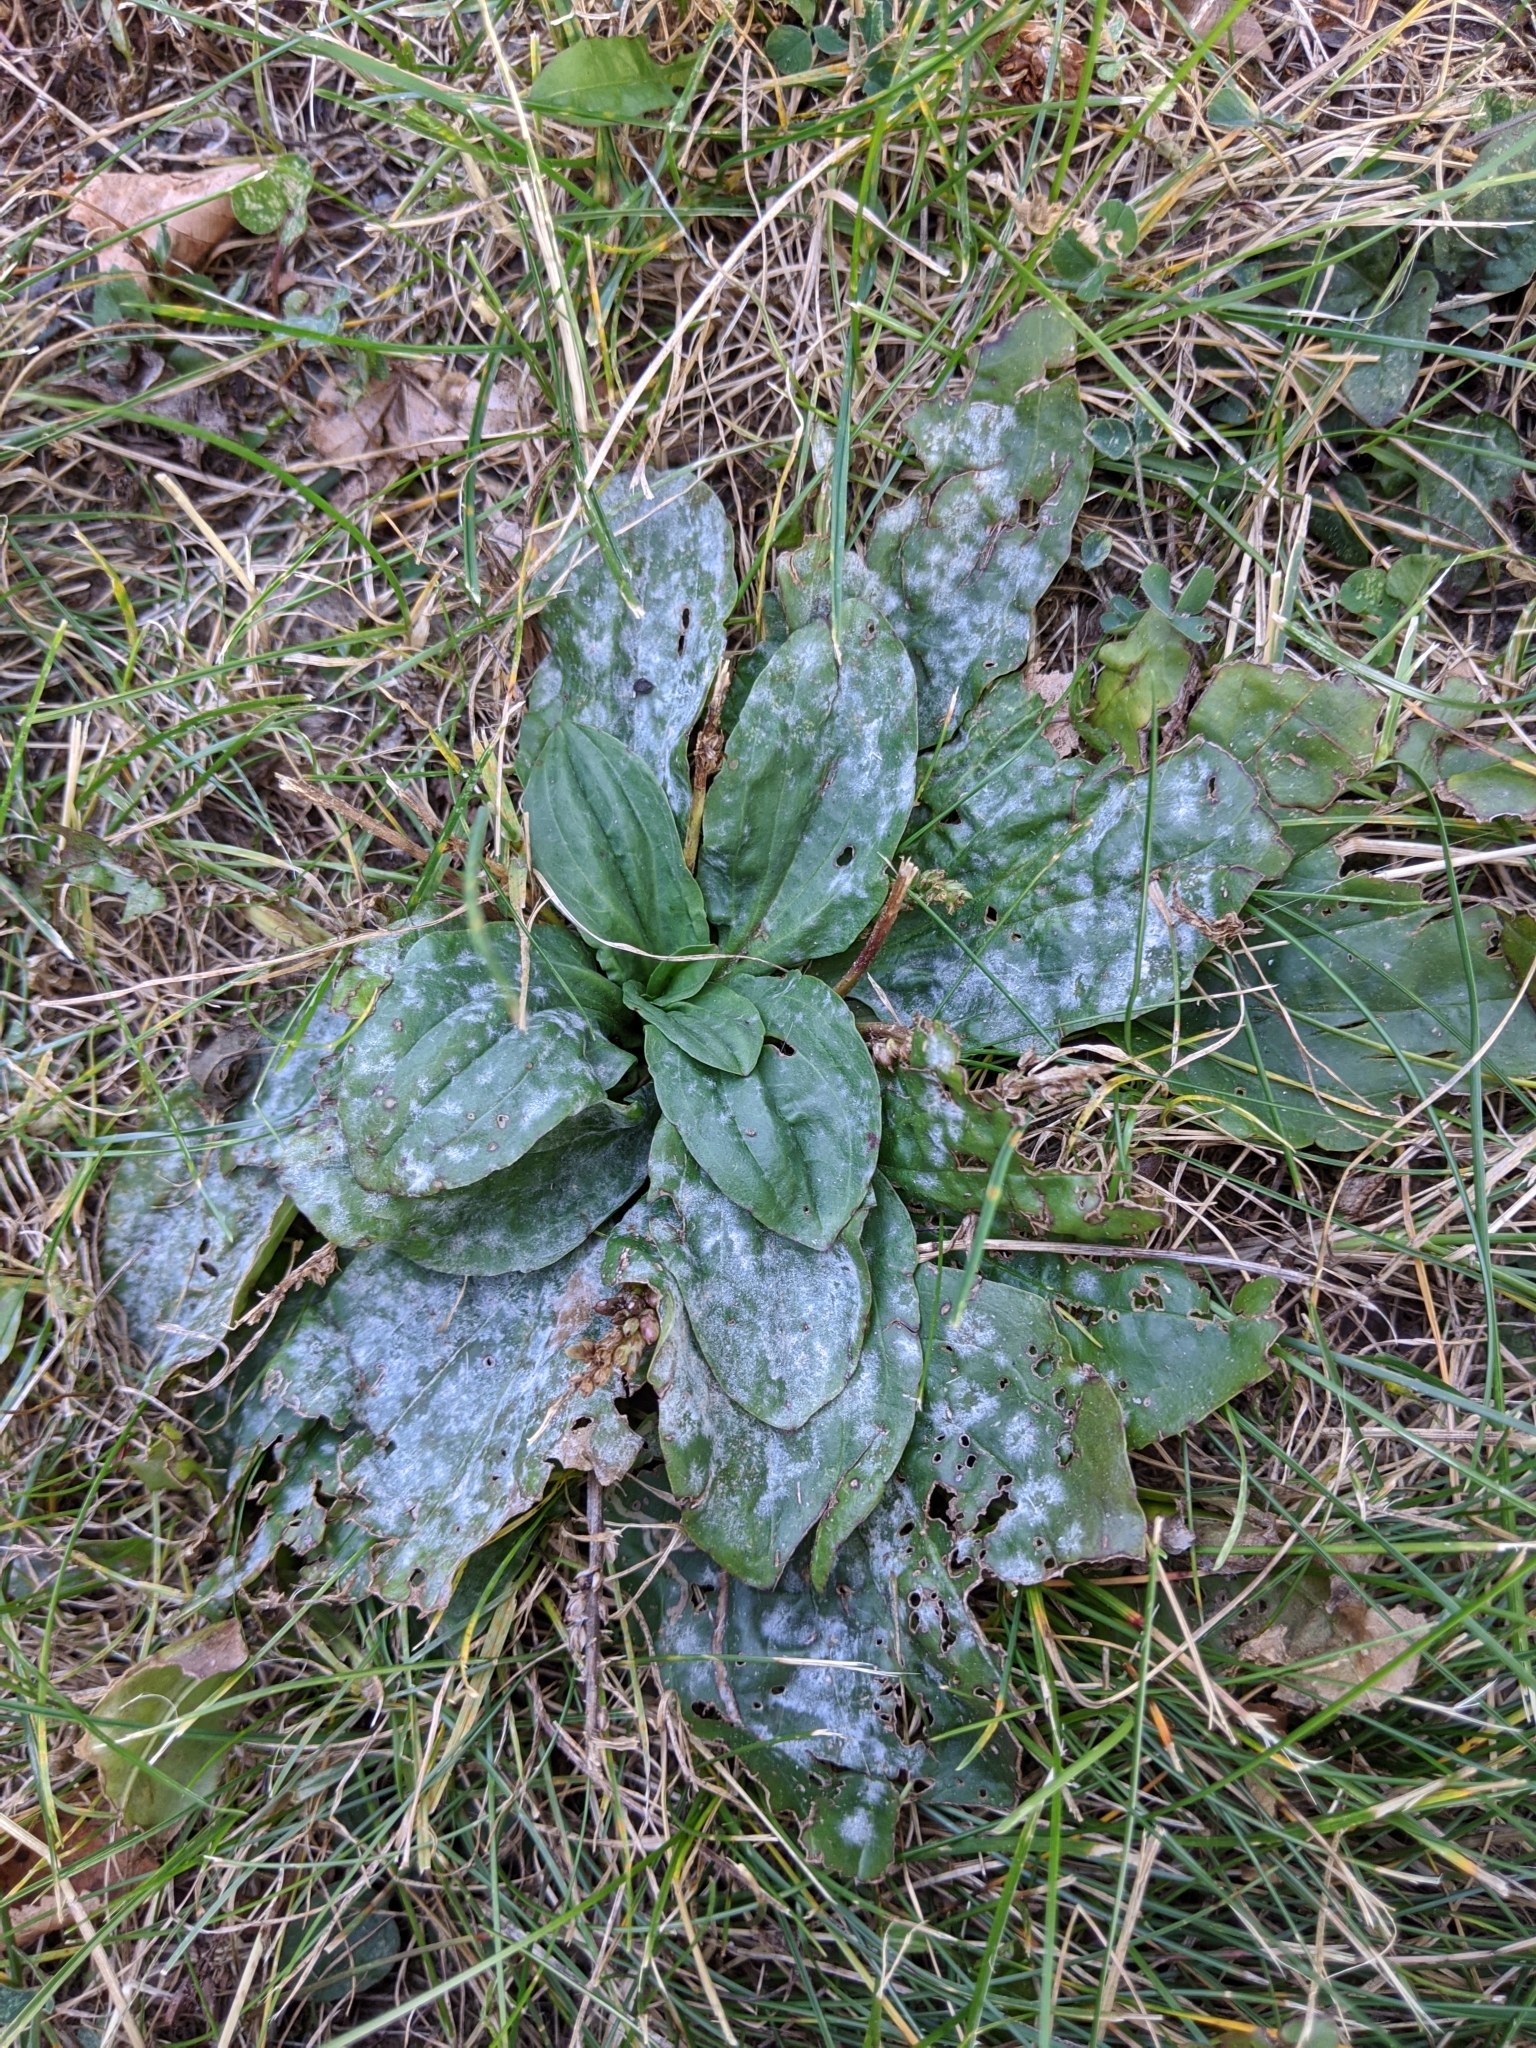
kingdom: Plantae
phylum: Tracheophyta
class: Magnoliopsida
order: Lamiales
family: Plantaginaceae
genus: Plantago
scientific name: Plantago major
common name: Common plantain
